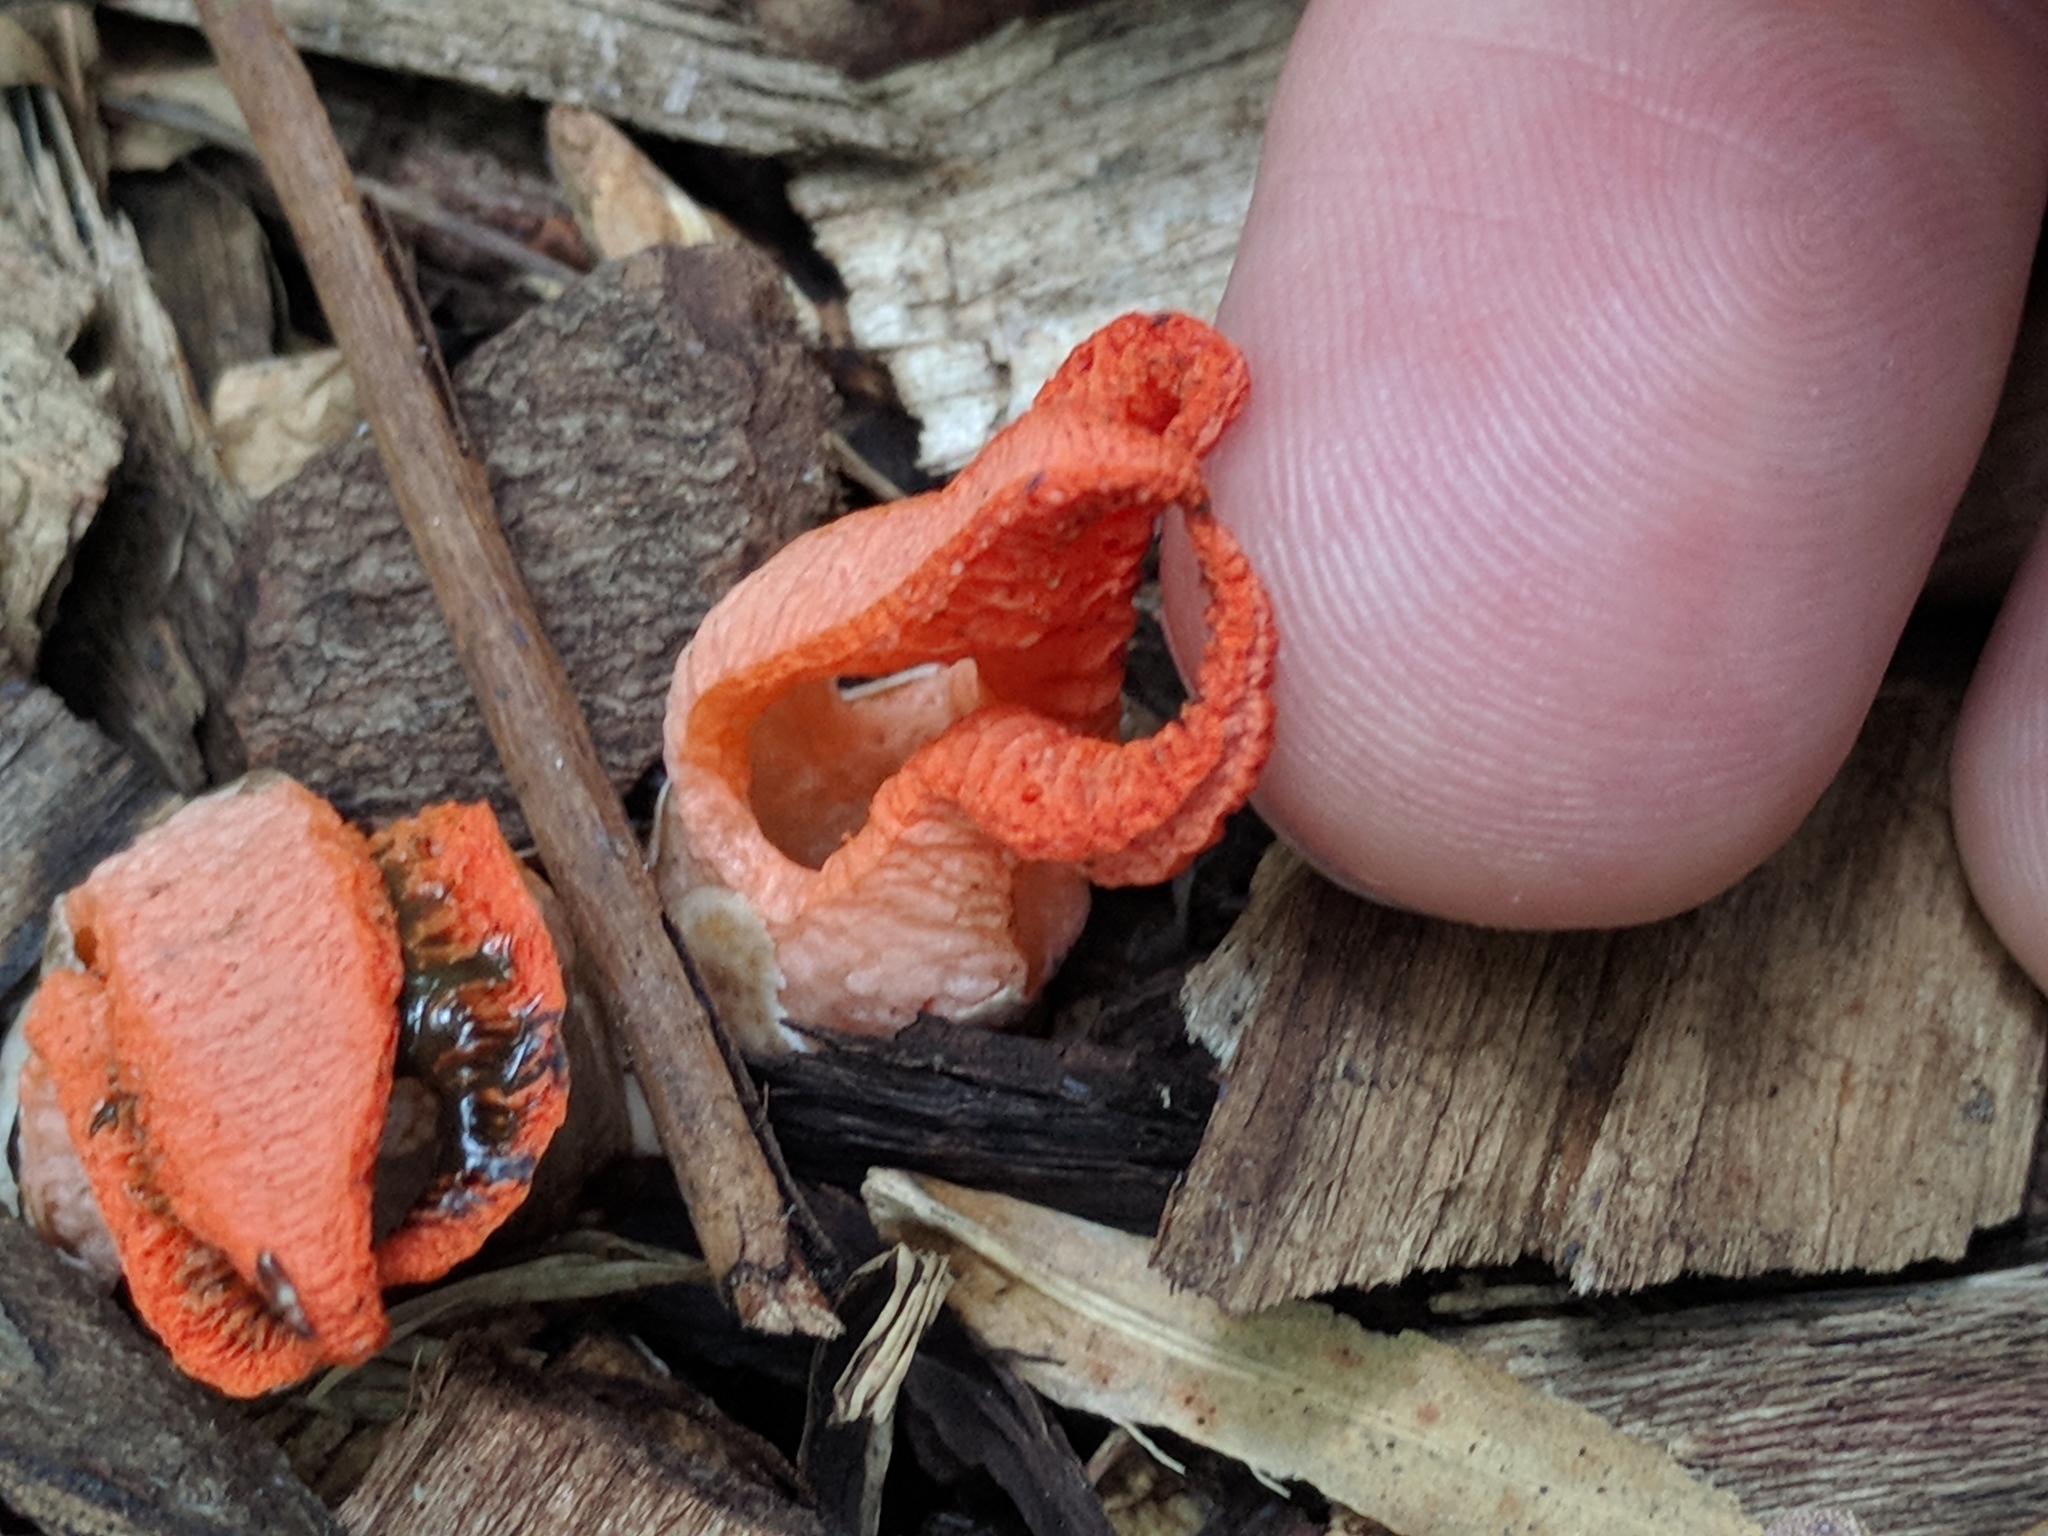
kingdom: Fungi
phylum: Basidiomycota
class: Agaricomycetes
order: Phallales
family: Phallaceae
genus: Pseudocolus
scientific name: Pseudocolus fusiformis
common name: Stinky squid
